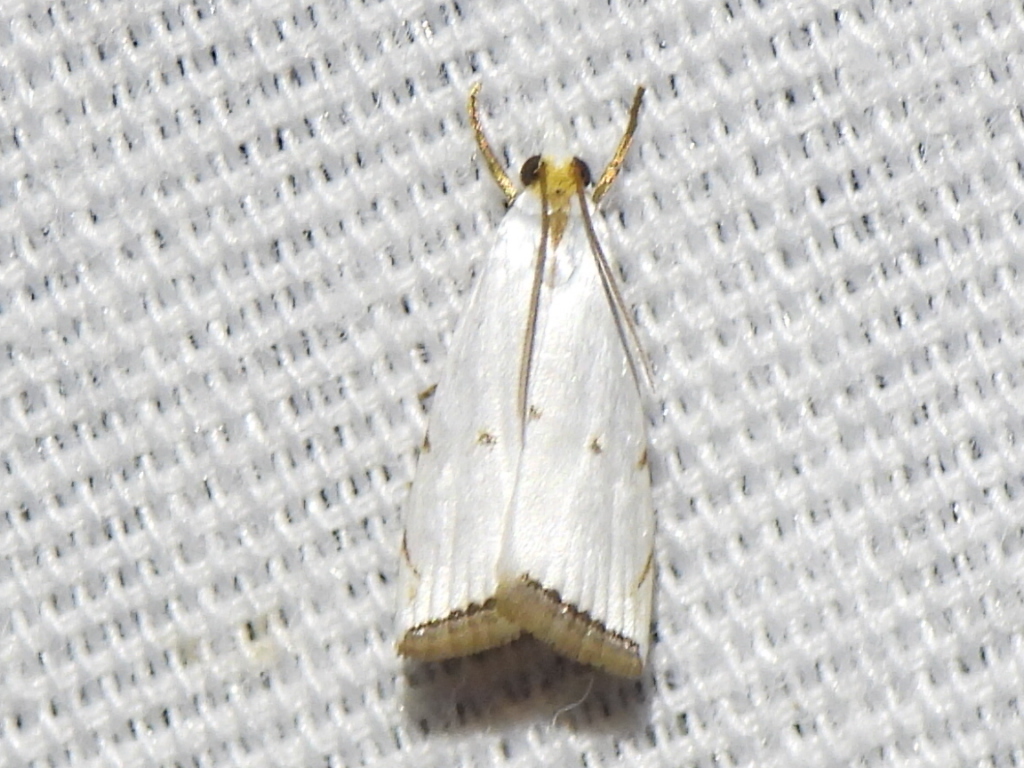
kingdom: Animalia
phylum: Arthropoda
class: Insecta
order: Lepidoptera
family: Crambidae
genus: Argyria
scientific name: Argyria pusillalis
